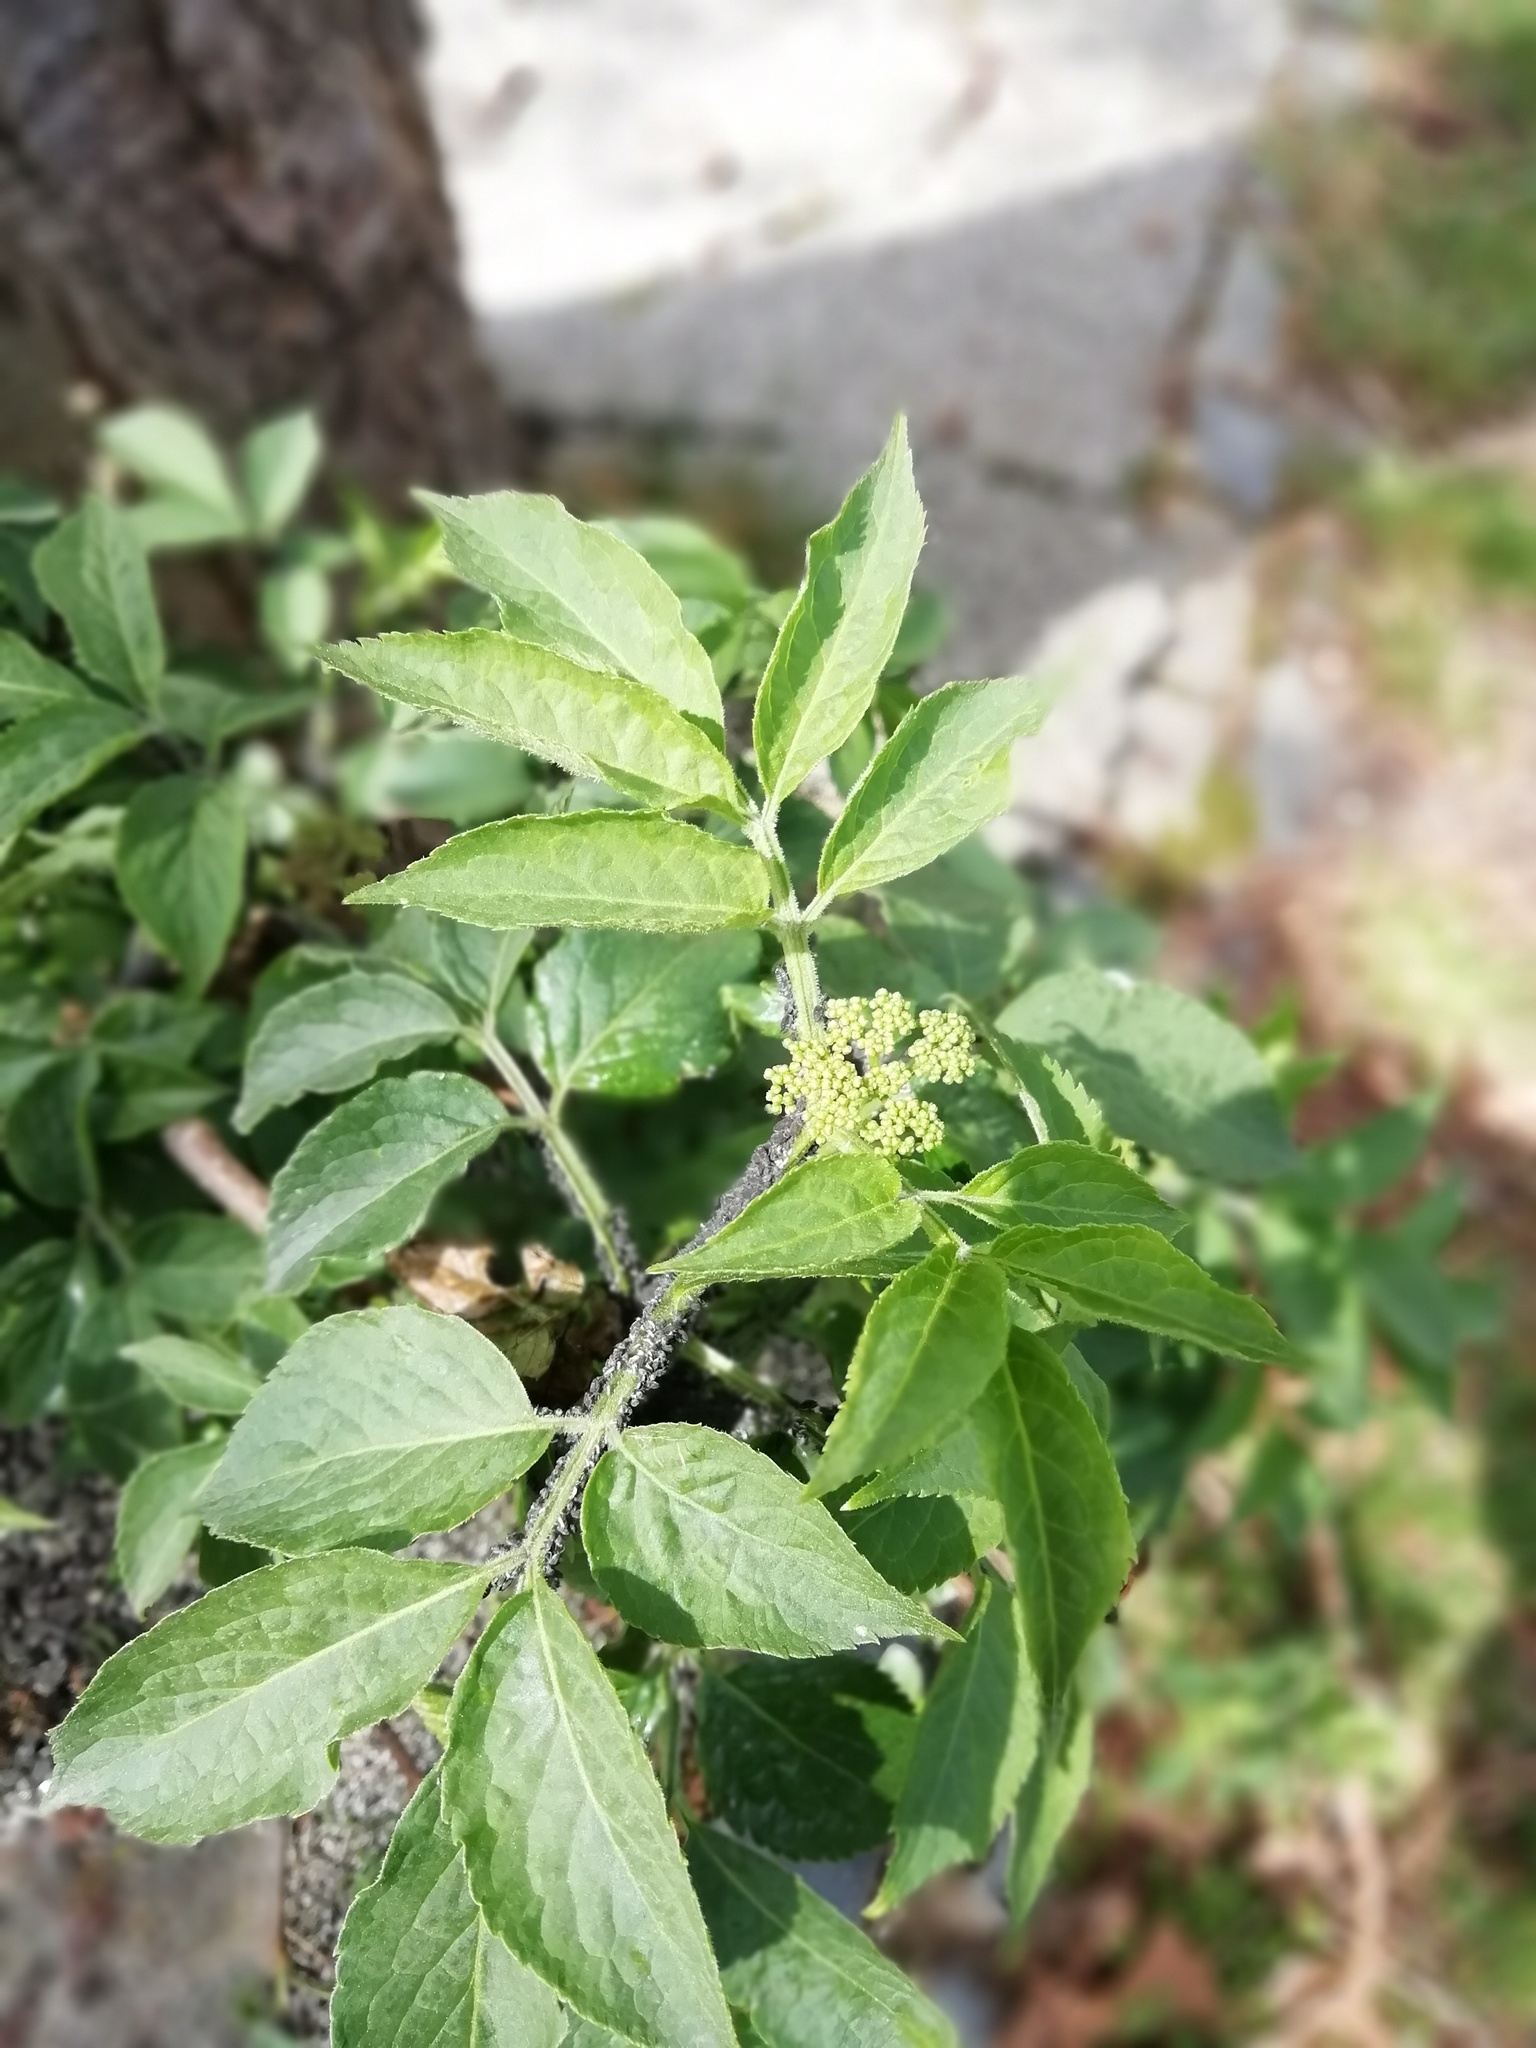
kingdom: Plantae
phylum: Tracheophyta
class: Magnoliopsida
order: Dipsacales
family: Viburnaceae
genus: Sambucus
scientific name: Sambucus nigra
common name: Elder
